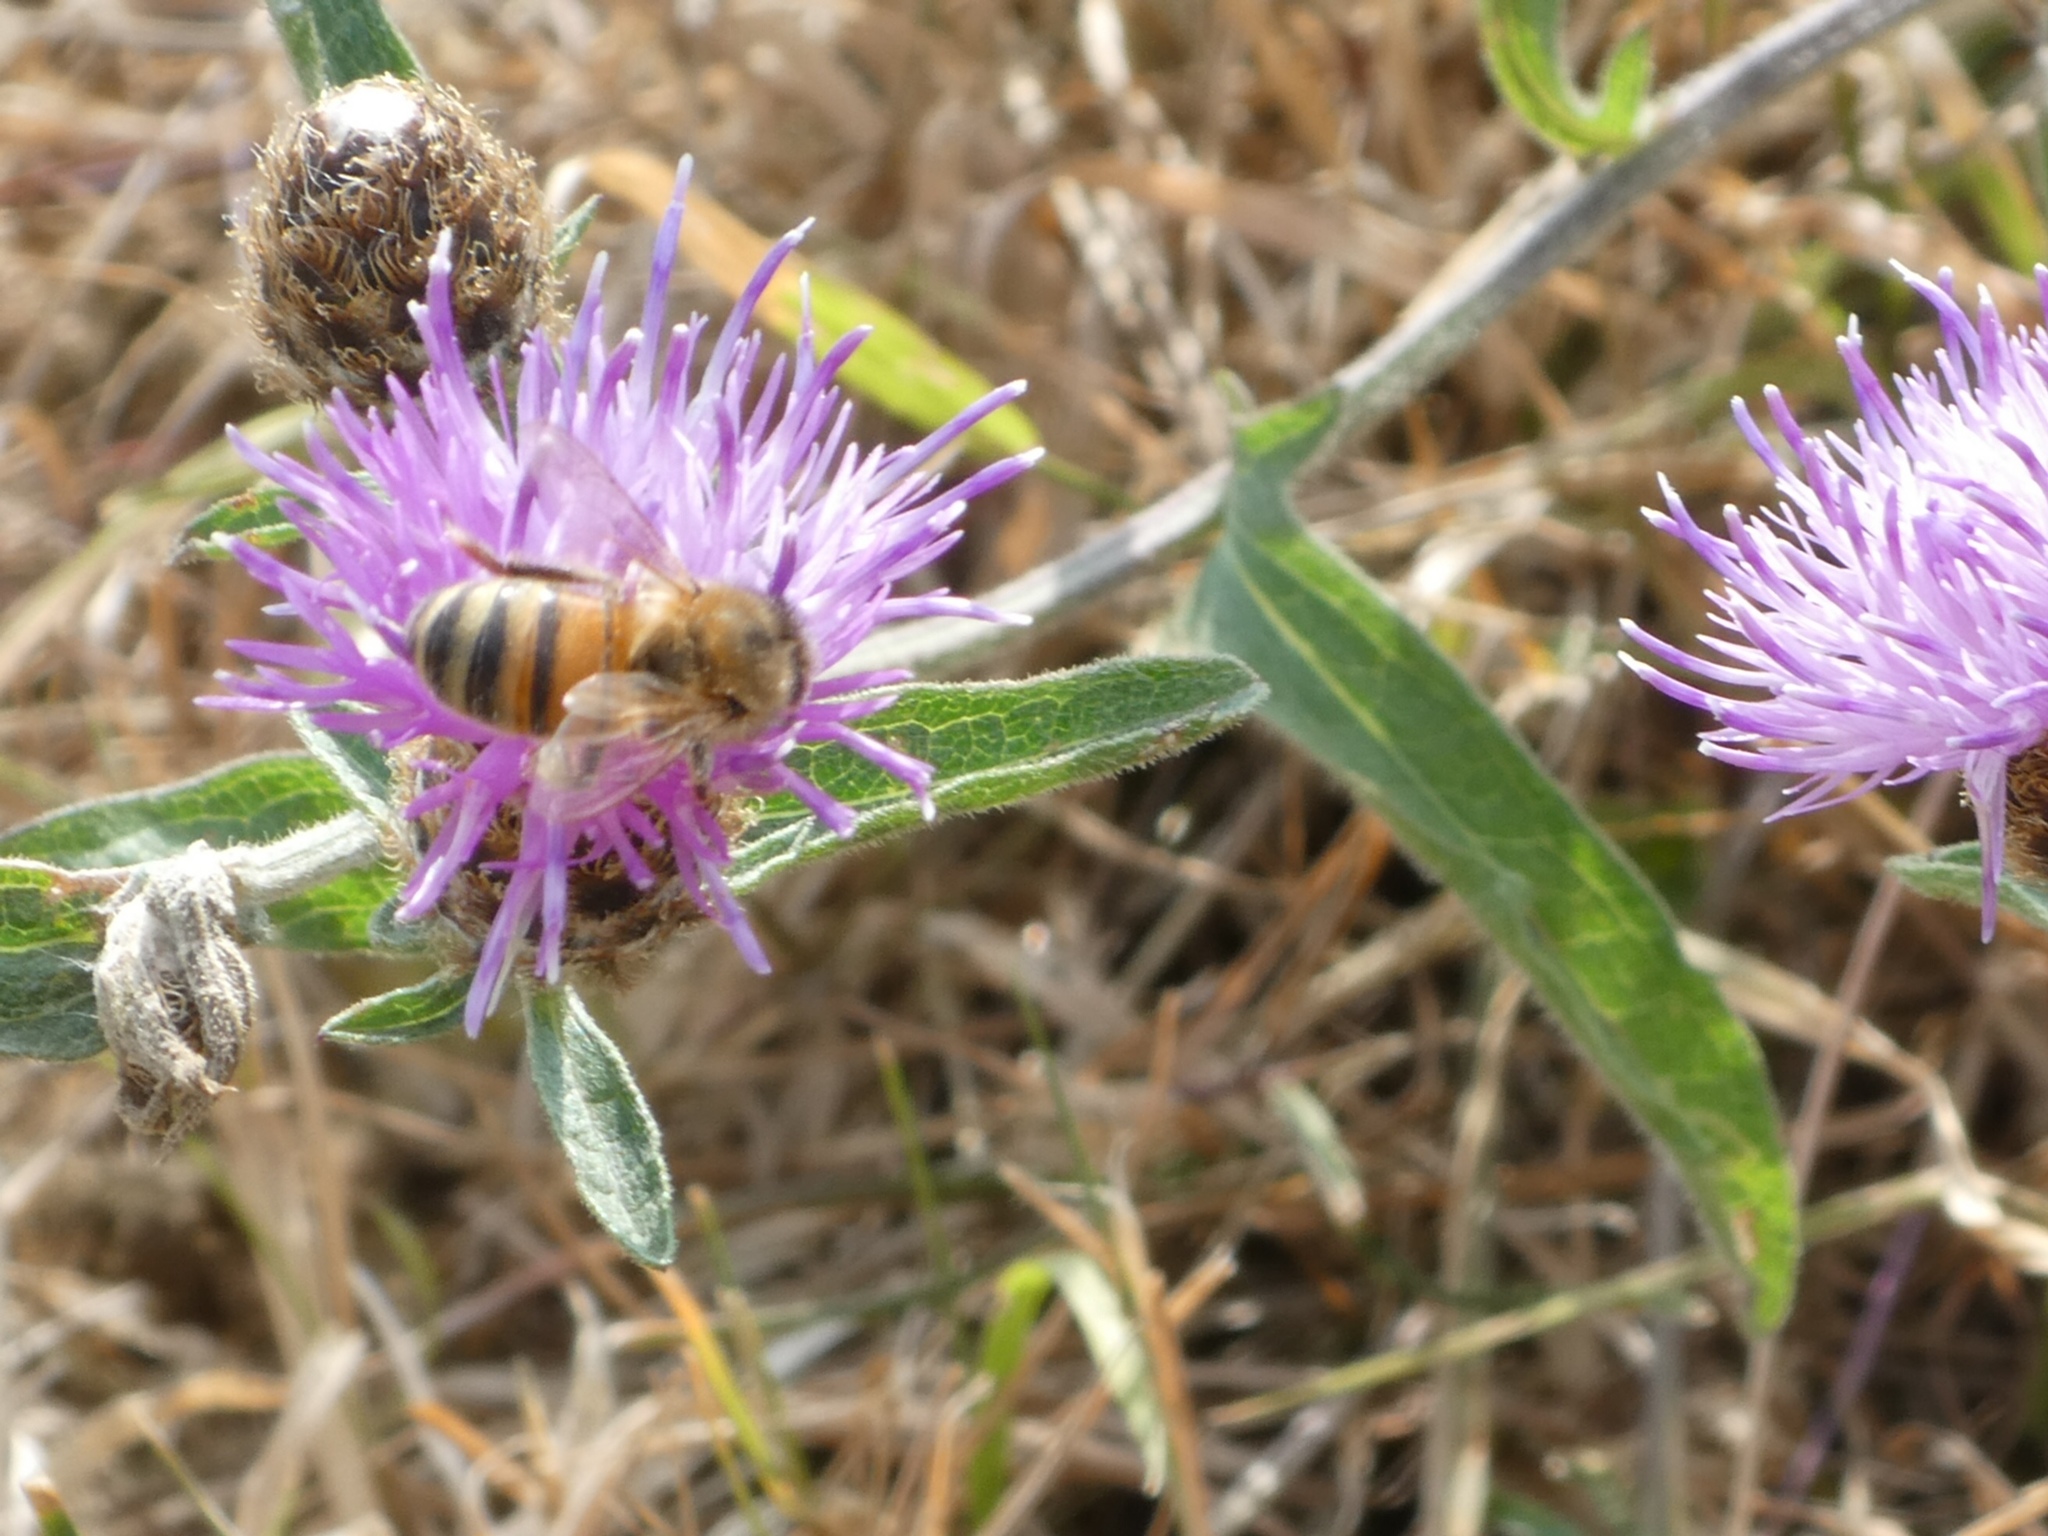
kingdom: Animalia
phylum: Arthropoda
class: Insecta
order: Hymenoptera
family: Apidae
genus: Apis
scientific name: Apis mellifera
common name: Honey bee
